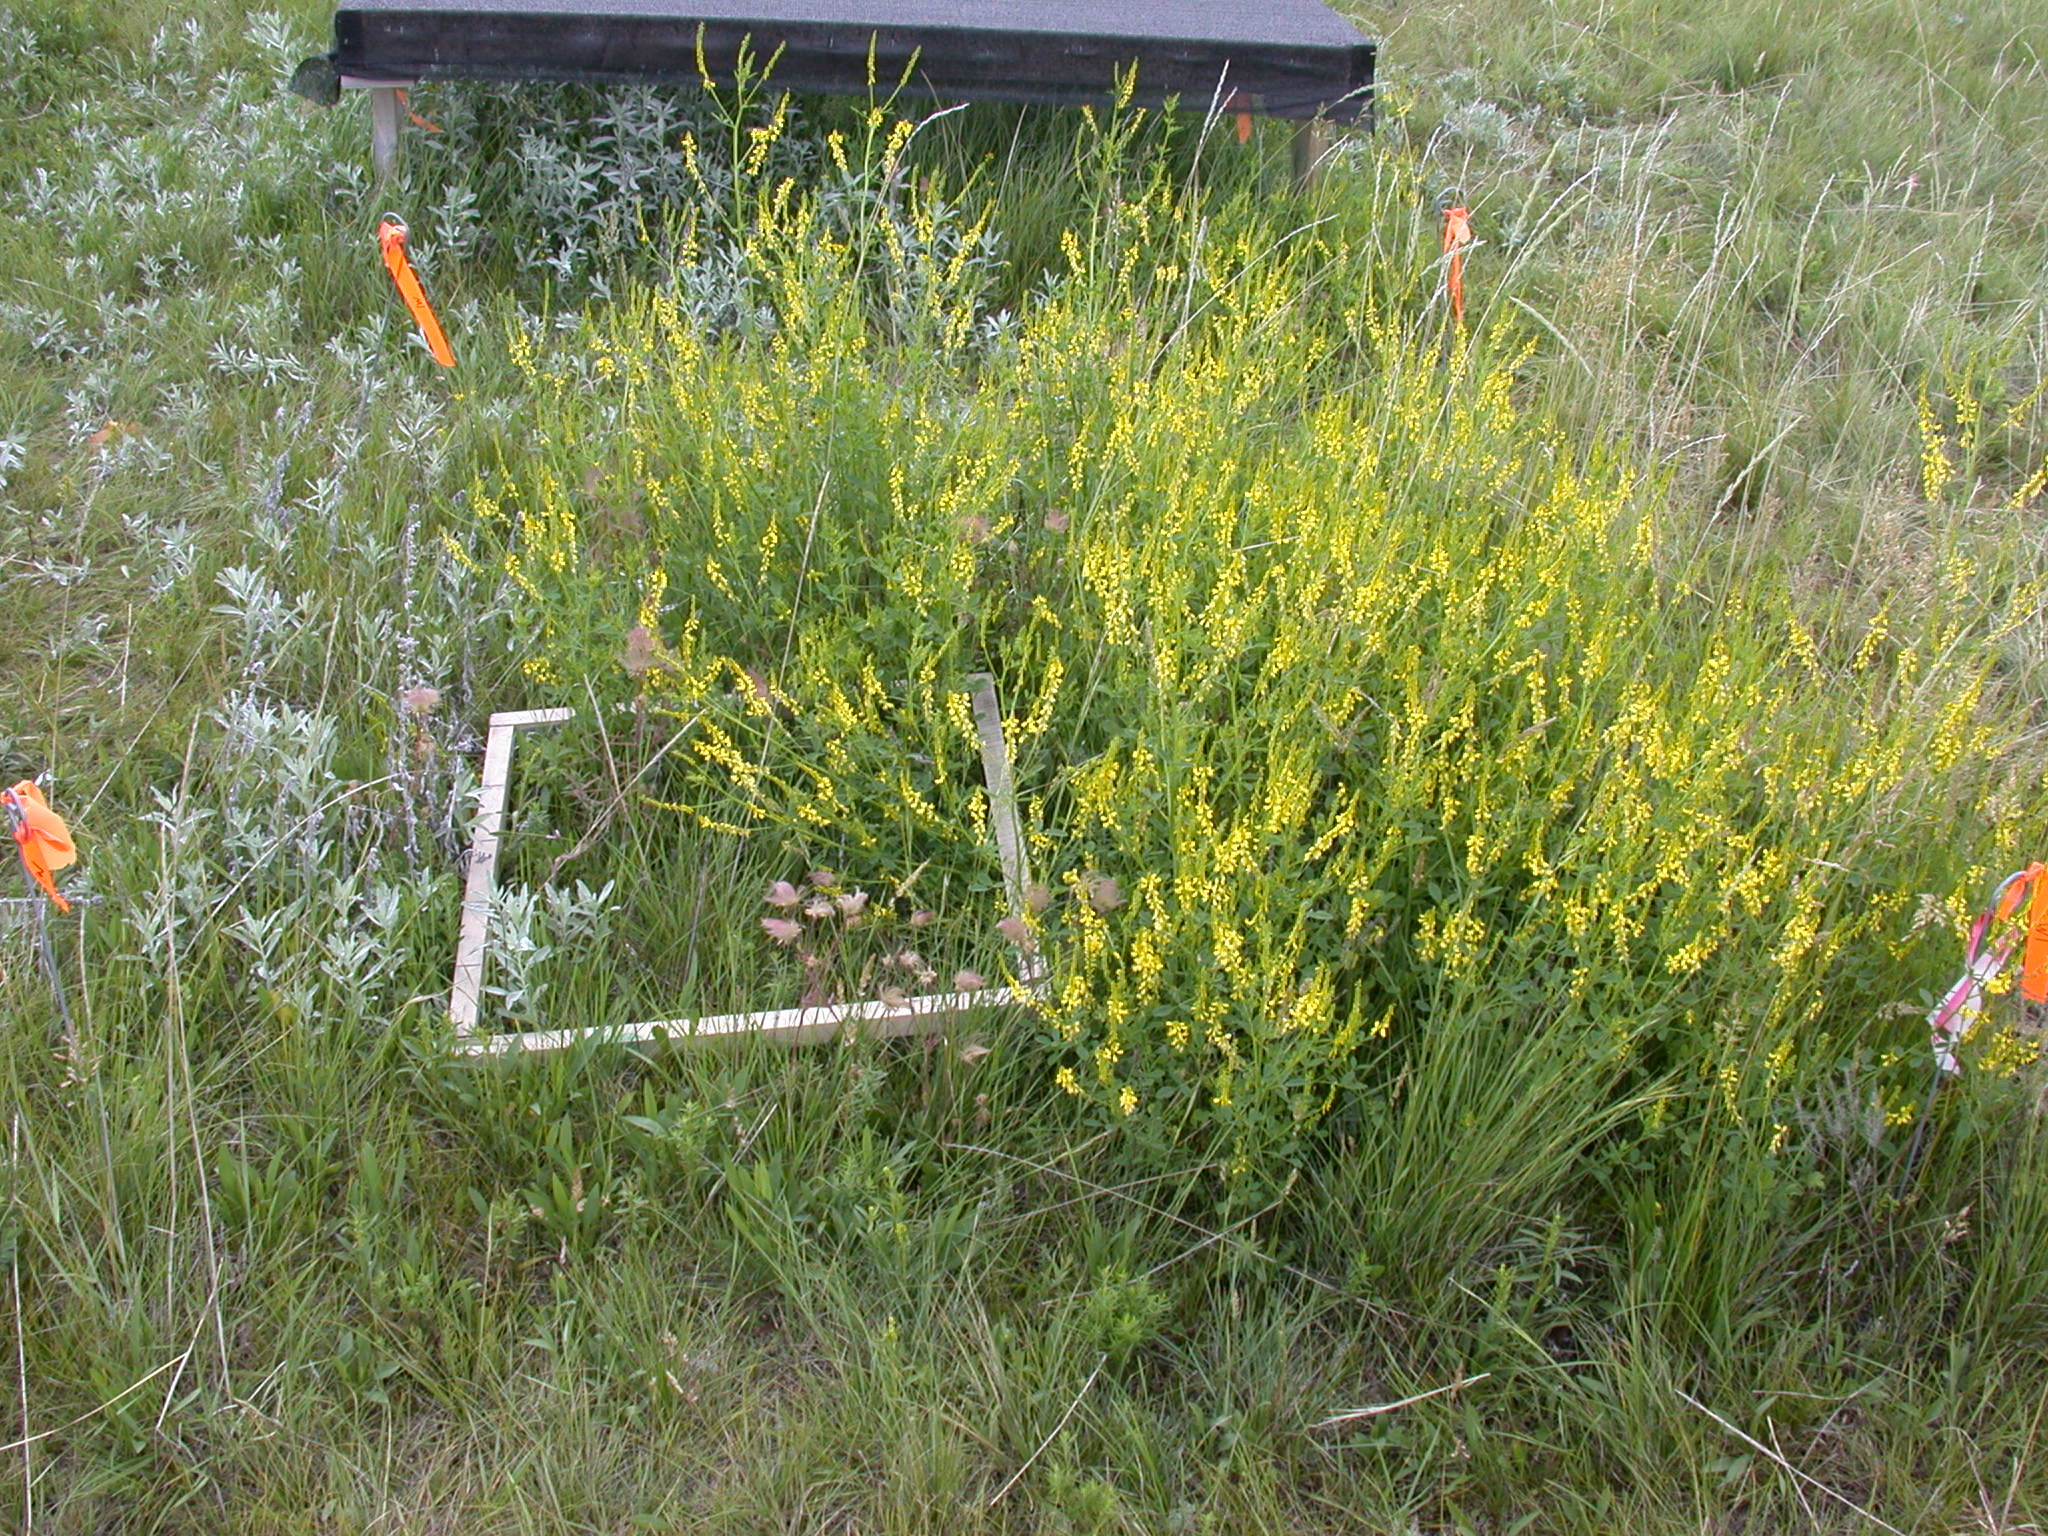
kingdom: Plantae
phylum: Tracheophyta
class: Magnoliopsida
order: Fabales
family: Fabaceae
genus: Melilotus
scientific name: Melilotus officinalis
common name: Sweetclover
